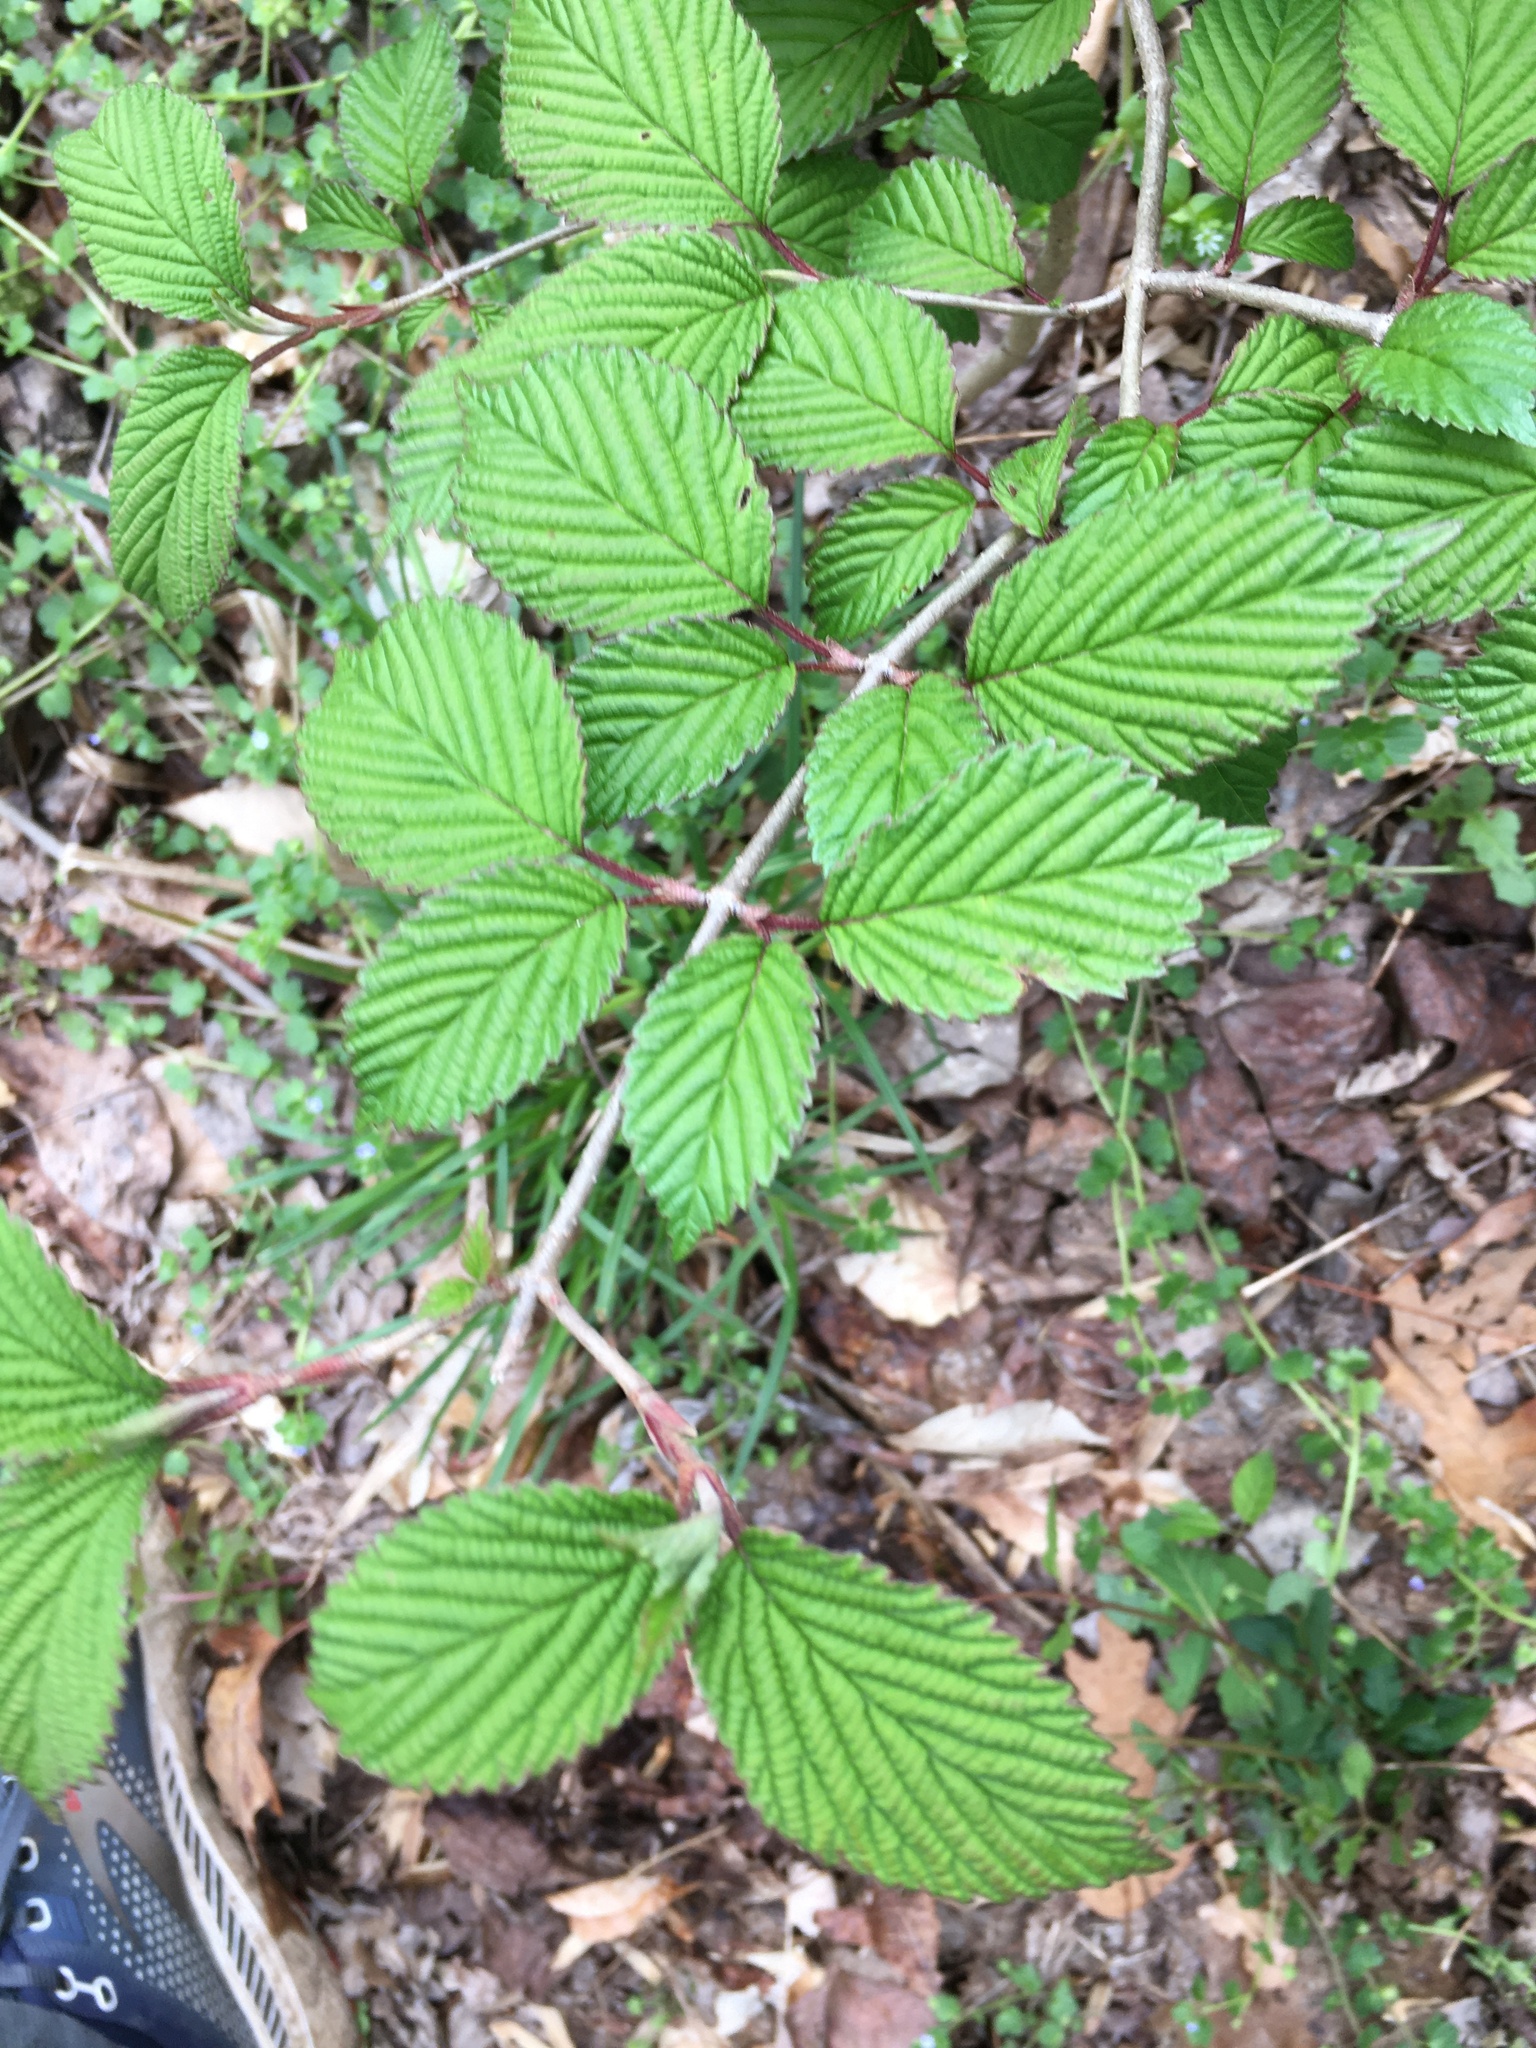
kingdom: Plantae
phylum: Tracheophyta
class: Magnoliopsida
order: Dipsacales
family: Viburnaceae
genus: Viburnum
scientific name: Viburnum plicatum
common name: Japanese snowball
